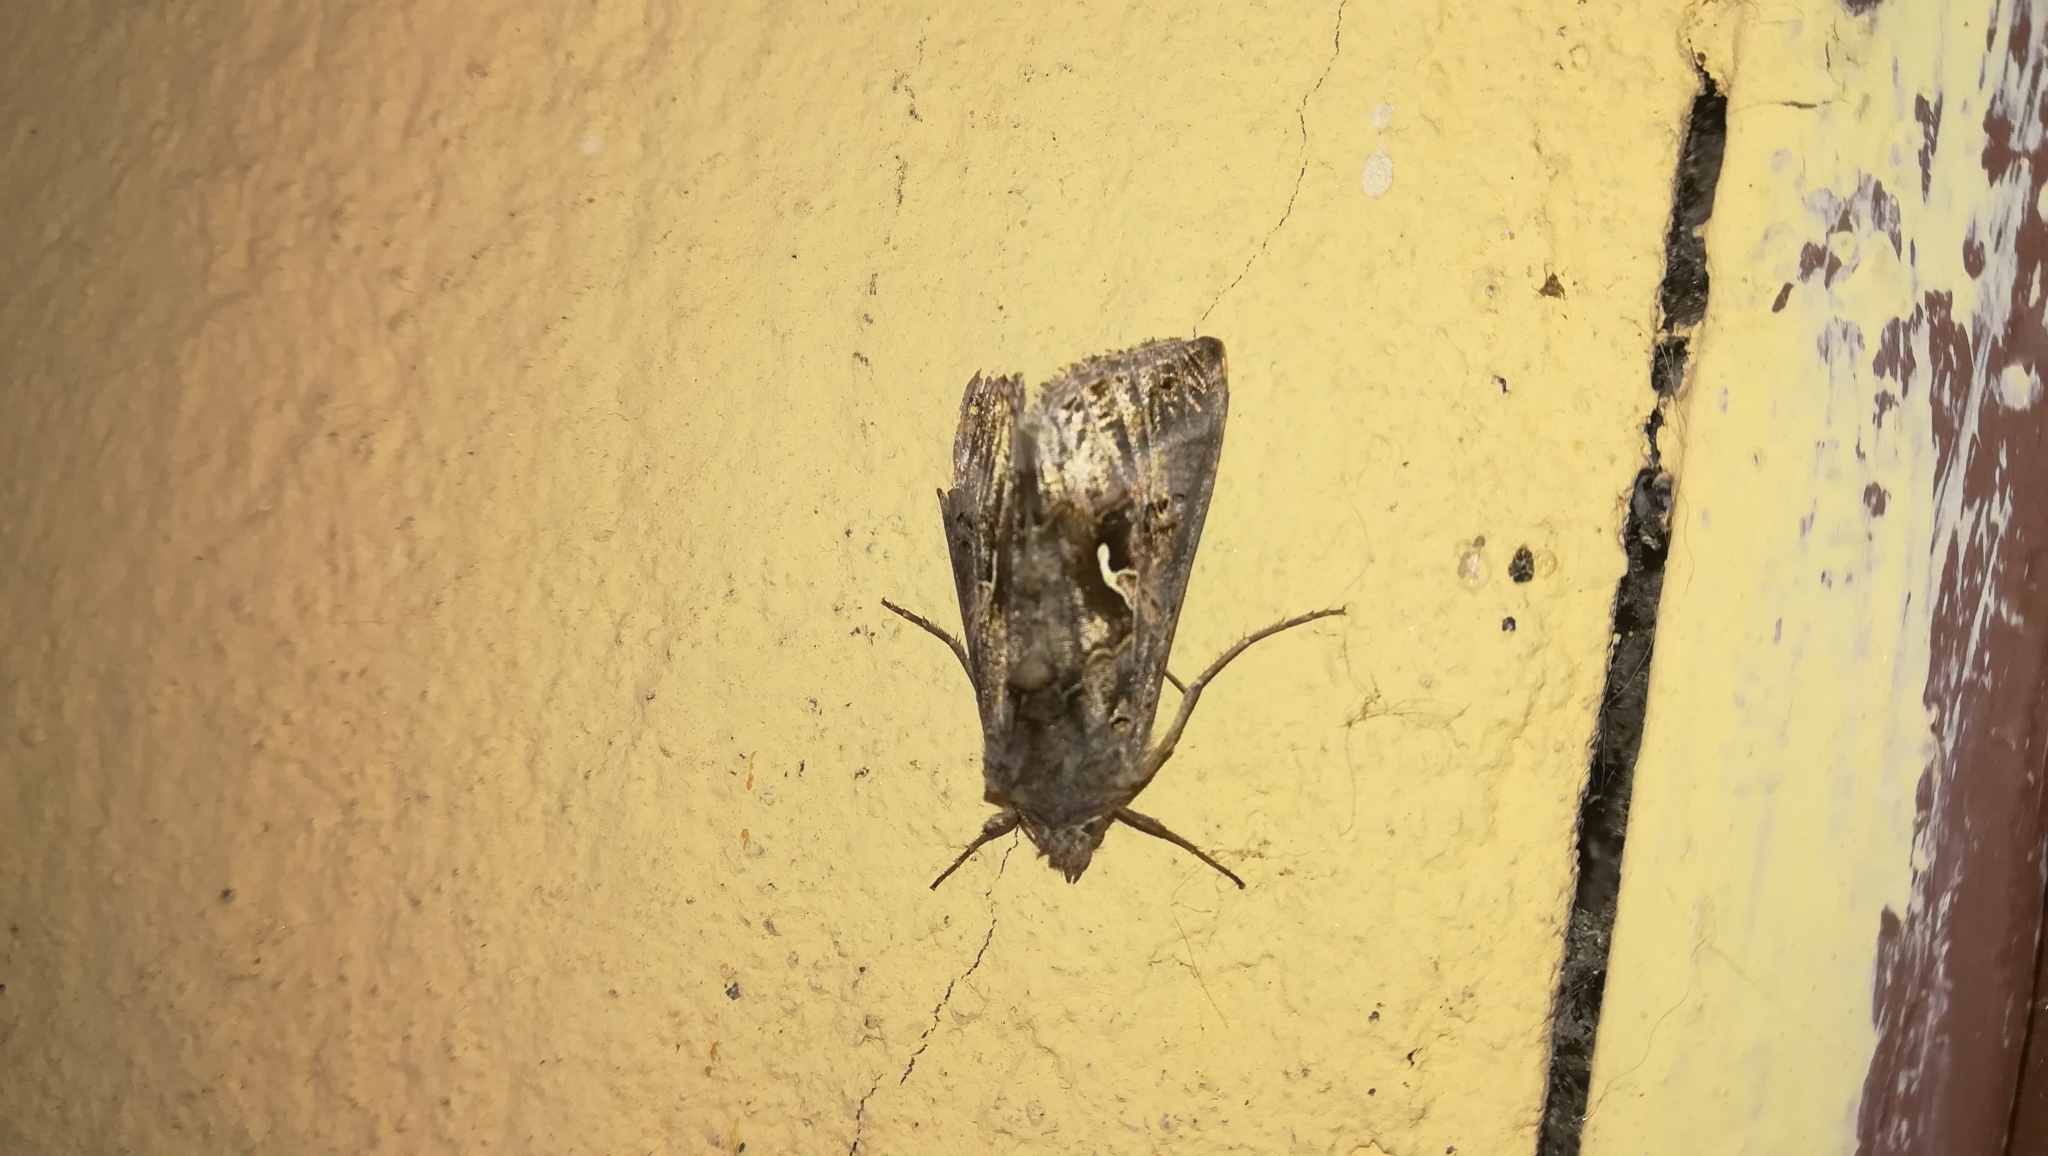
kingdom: Animalia
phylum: Arthropoda
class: Insecta
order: Lepidoptera
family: Noctuidae
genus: Autographa
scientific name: Autographa gamma
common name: Silver y
